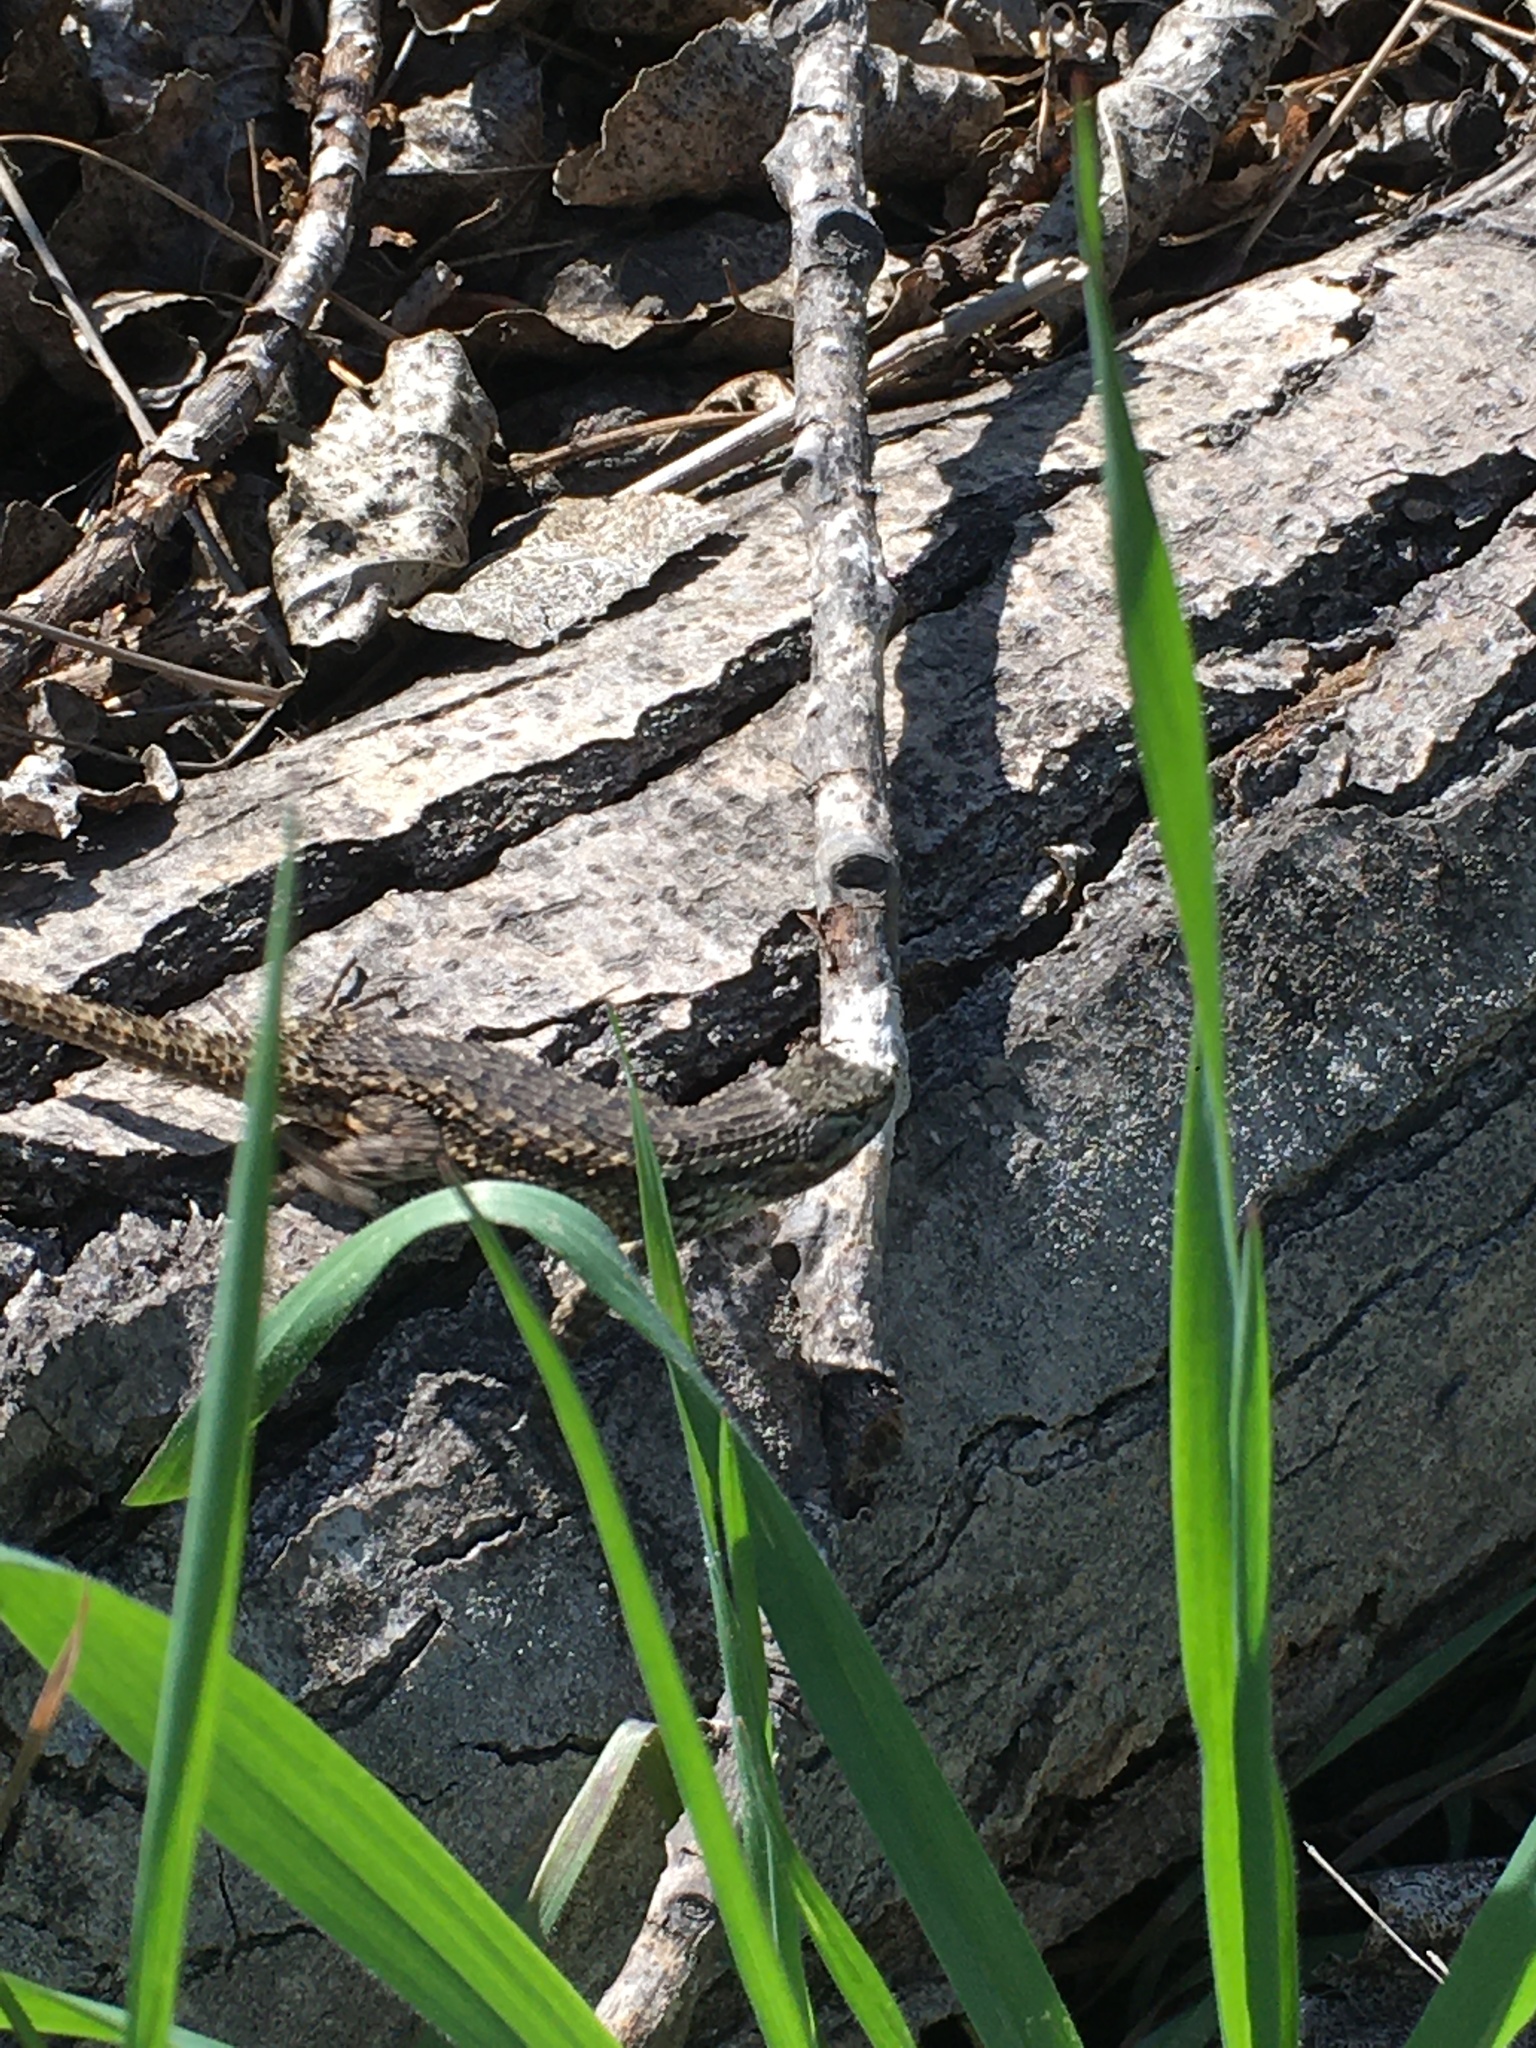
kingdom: Animalia
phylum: Chordata
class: Squamata
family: Phrynosomatidae
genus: Sceloporus
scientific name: Sceloporus occidentalis
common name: Western fence lizard
